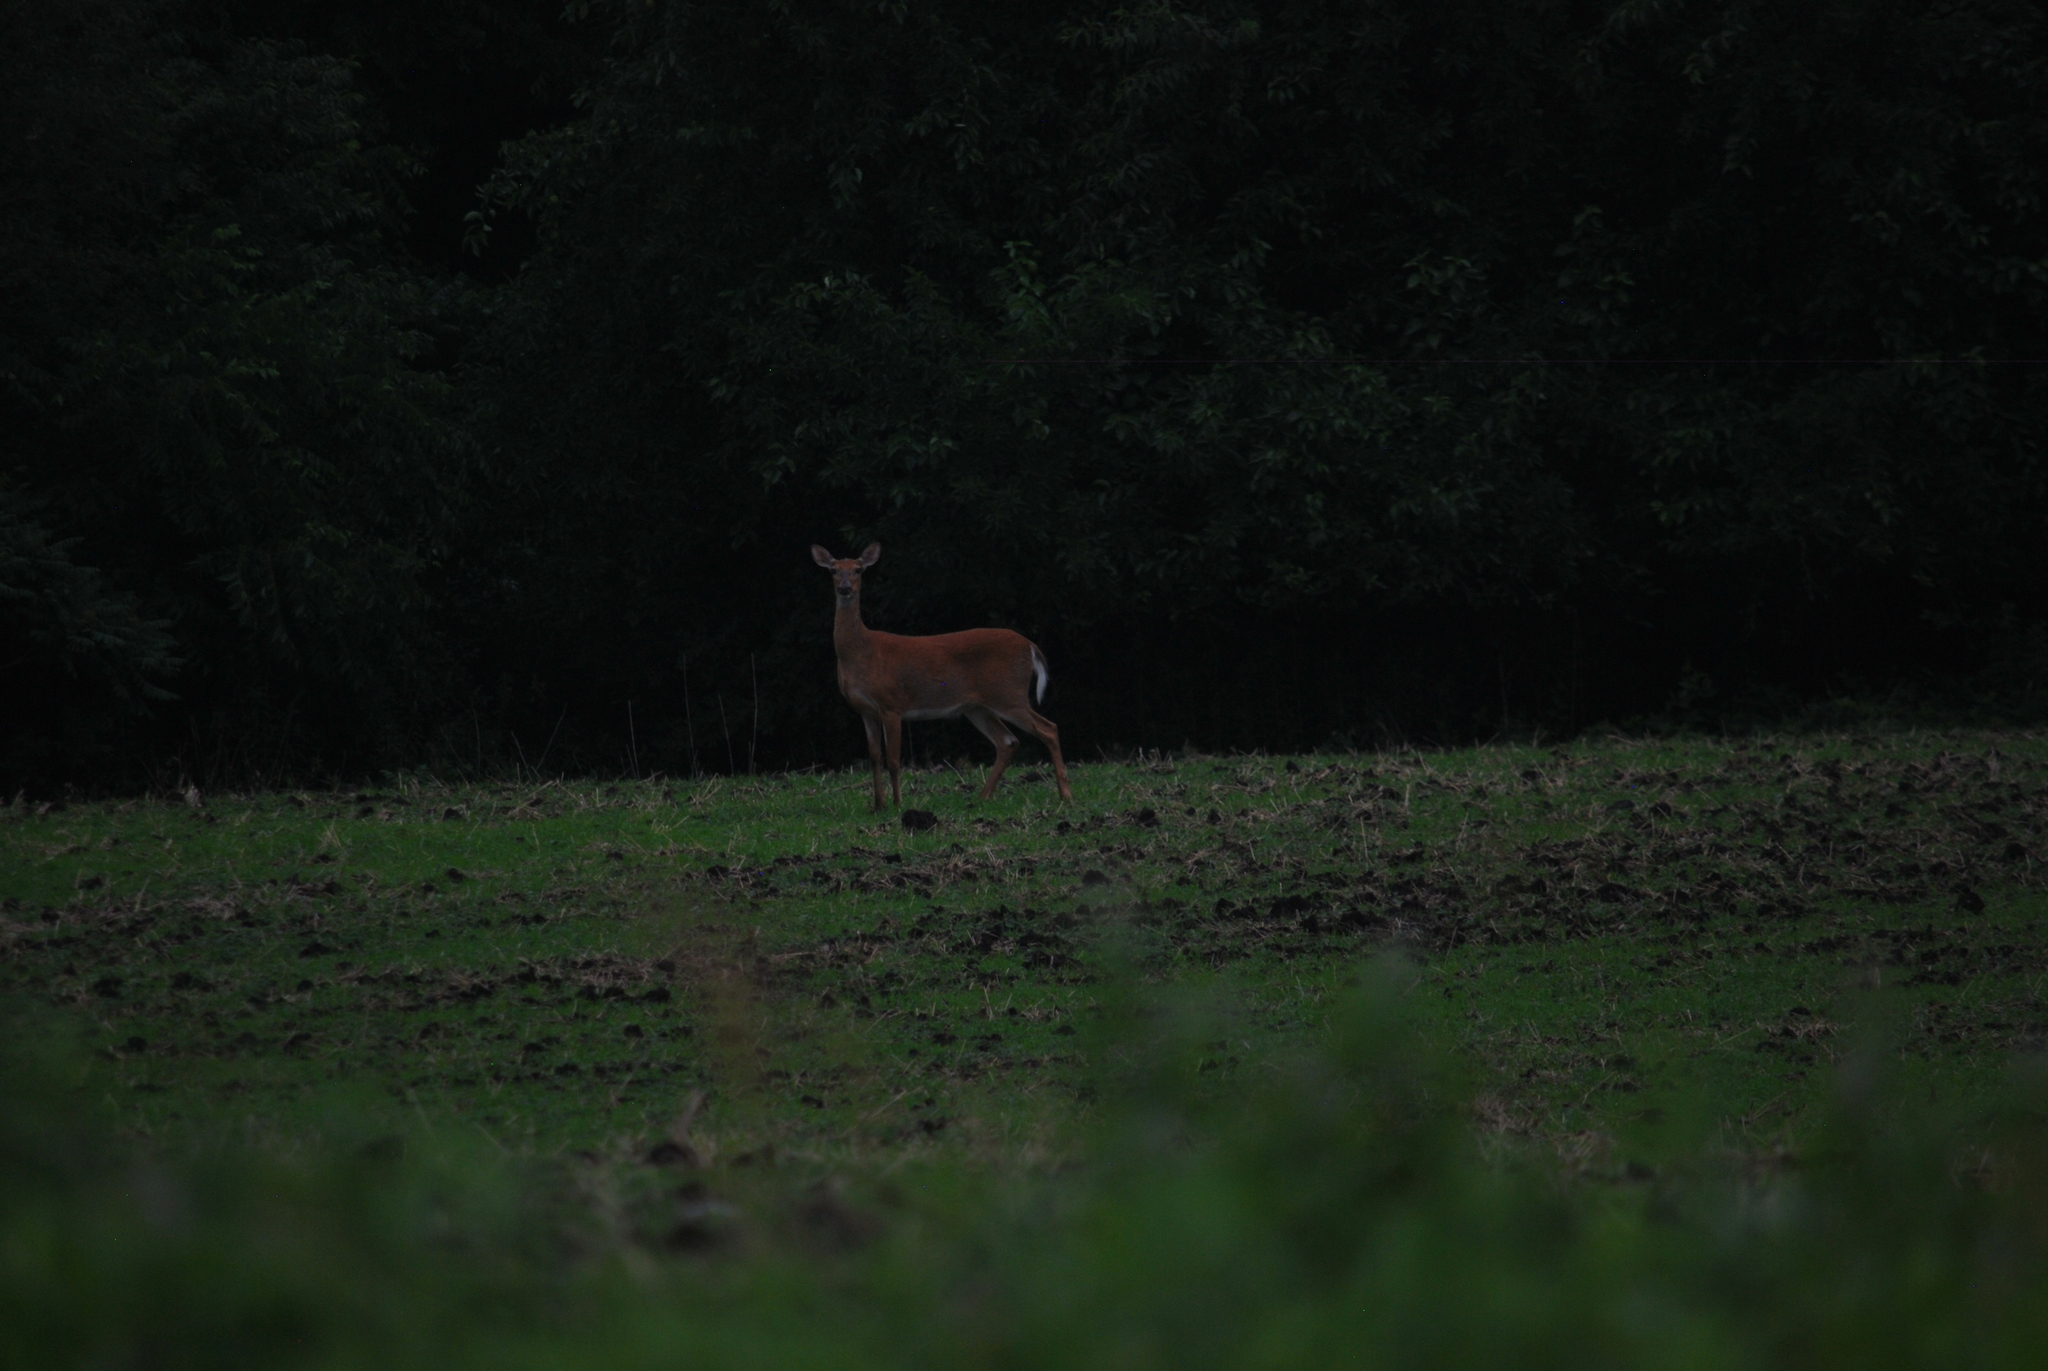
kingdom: Animalia
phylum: Chordata
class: Mammalia
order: Artiodactyla
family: Cervidae
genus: Odocoileus
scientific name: Odocoileus virginianus
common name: White-tailed deer
